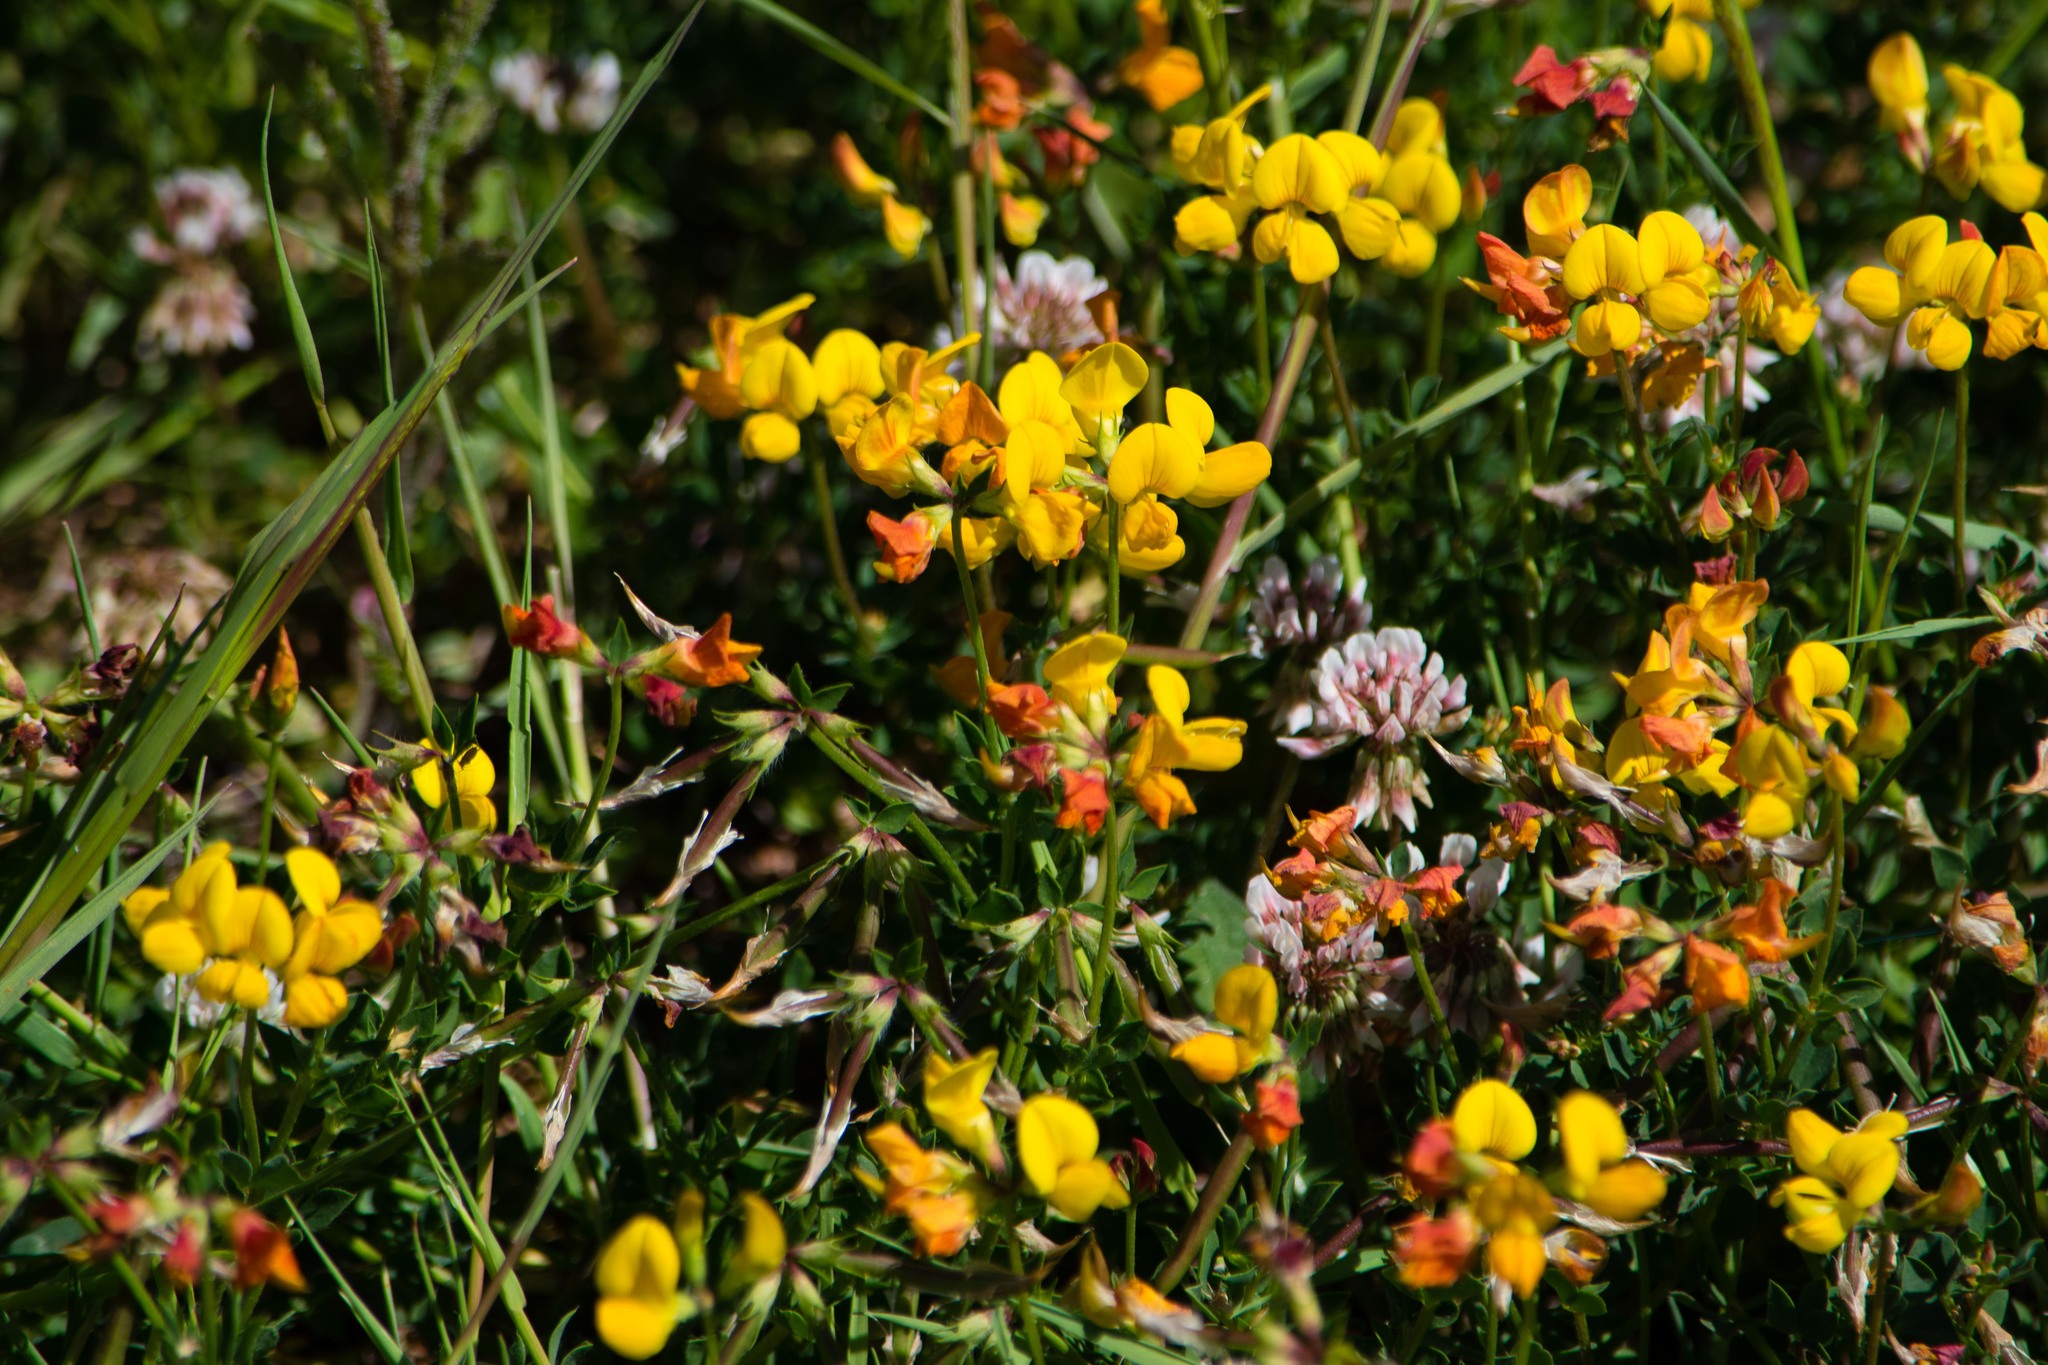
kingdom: Plantae
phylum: Tracheophyta
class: Magnoliopsida
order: Fabales
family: Fabaceae
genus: Lotus
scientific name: Lotus corniculatus
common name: Common bird's-foot-trefoil
